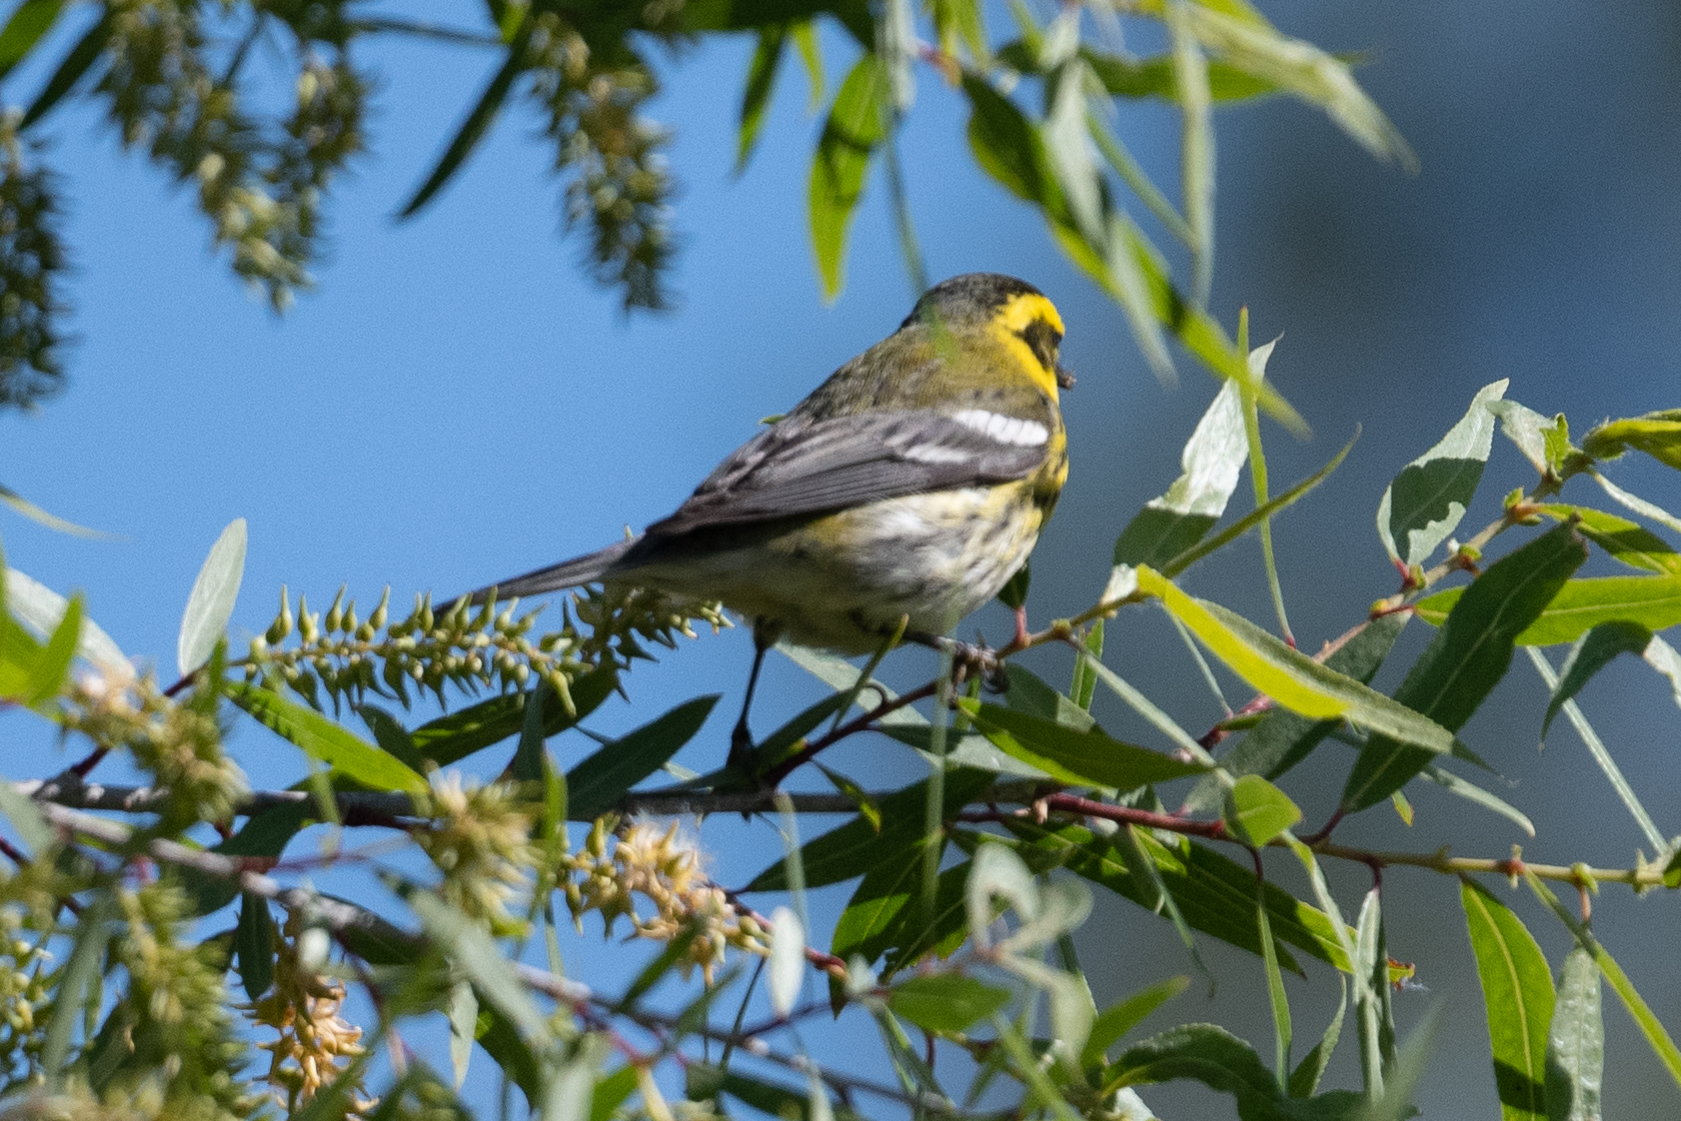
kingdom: Animalia
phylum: Chordata
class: Aves
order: Passeriformes
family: Parulidae
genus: Setophaga
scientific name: Setophaga townsendi
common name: Townsend's warbler
